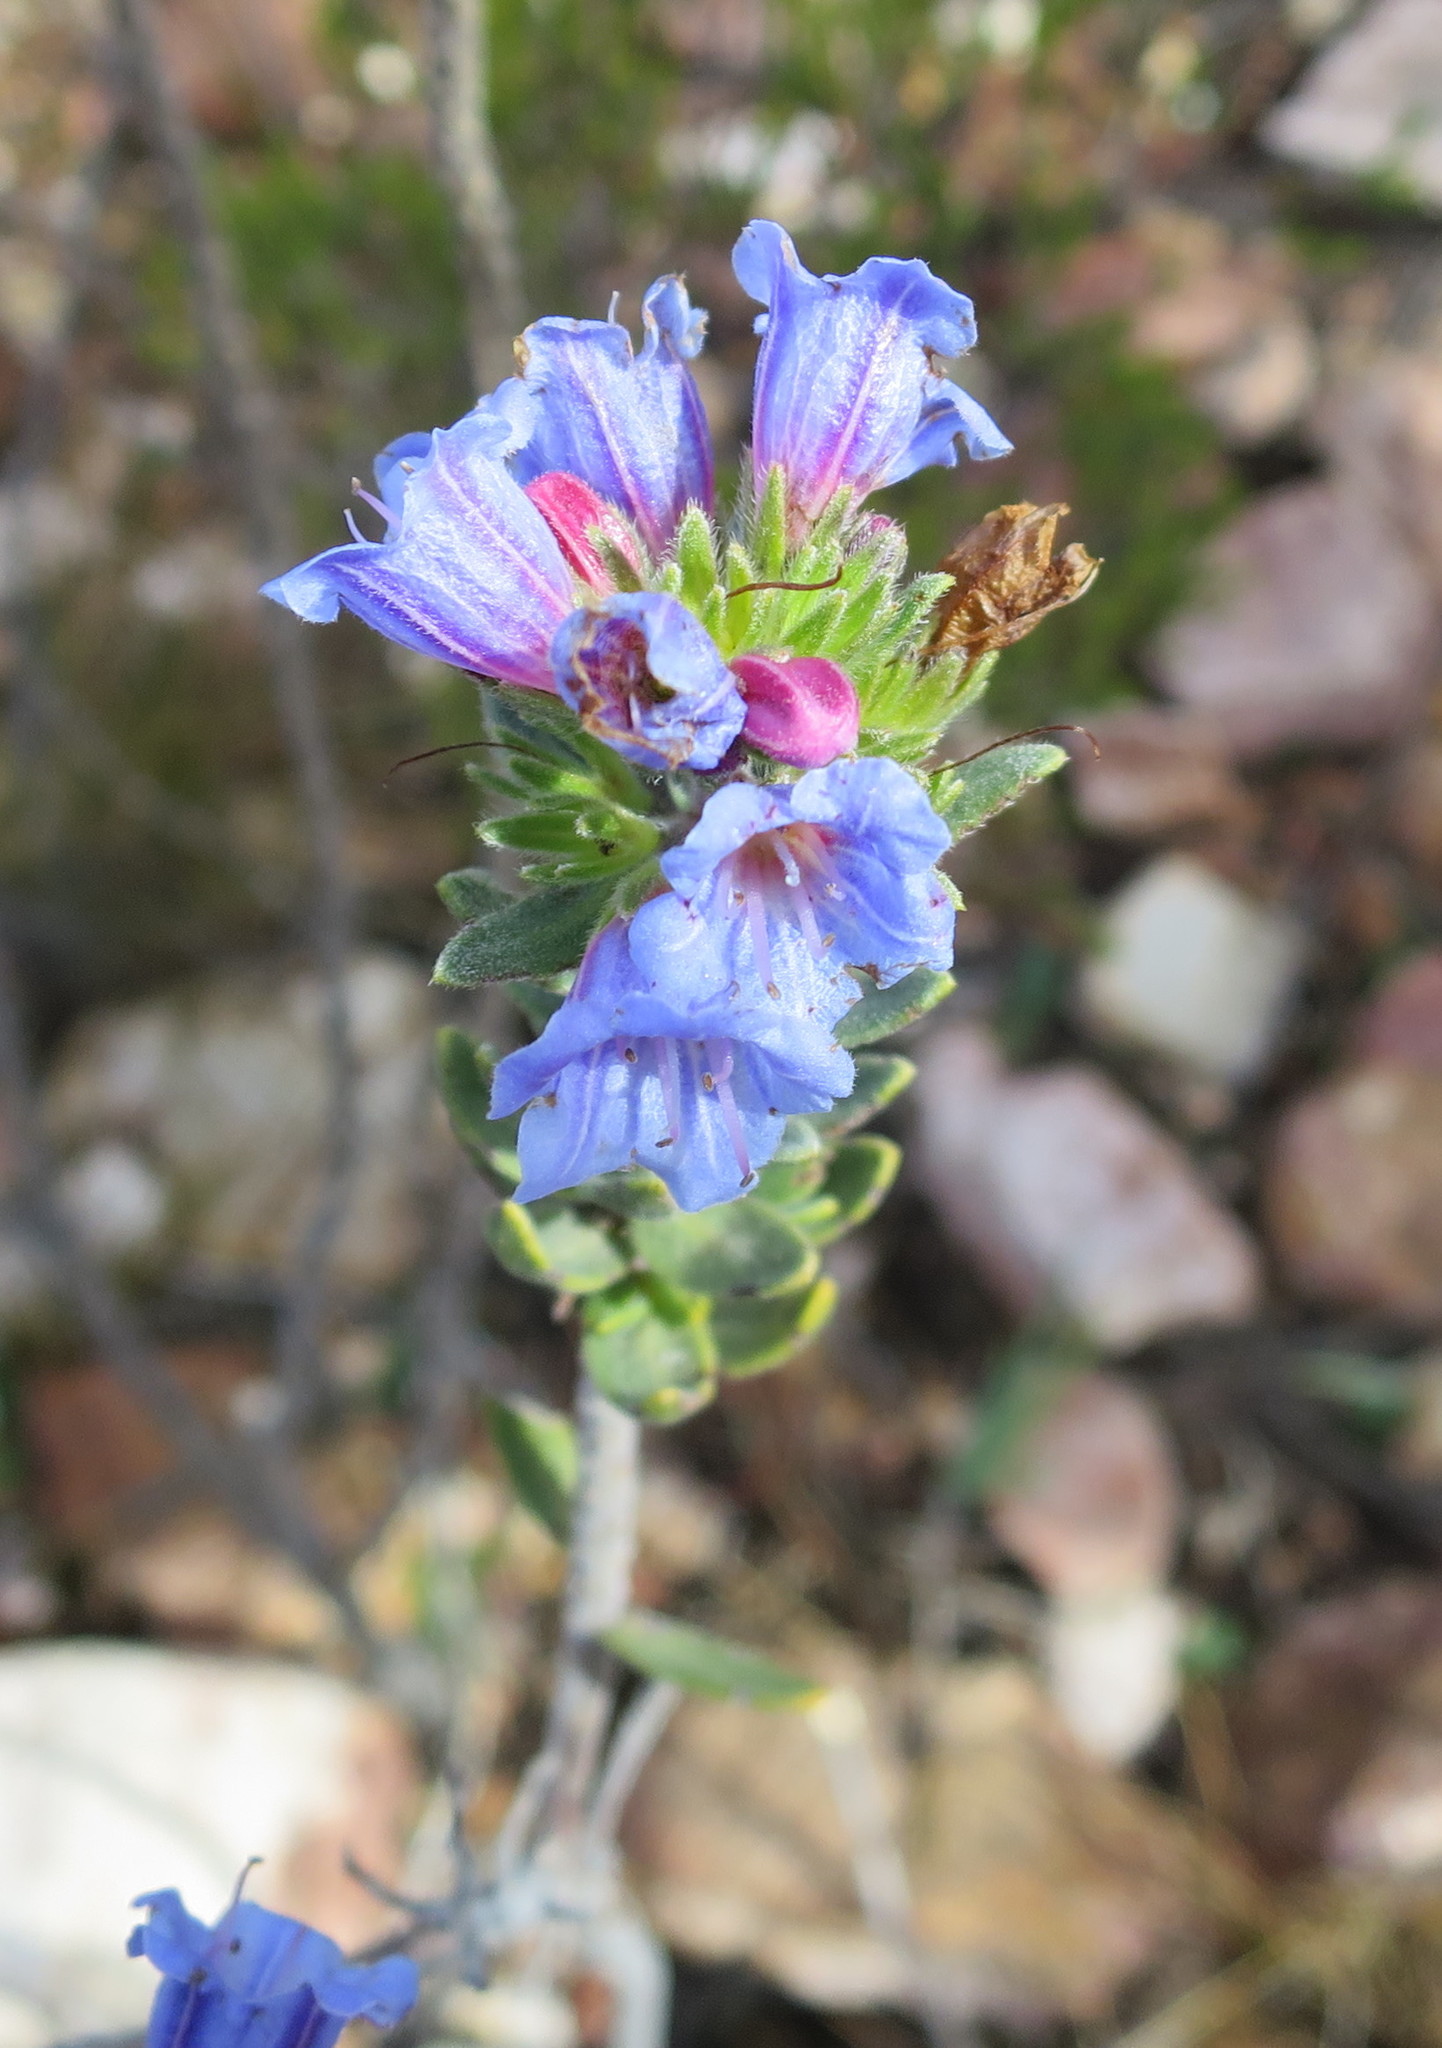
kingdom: Plantae
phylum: Tracheophyta
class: Magnoliopsida
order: Boraginales
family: Boraginaceae
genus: Lobostemon
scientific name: Lobostemon fruticosus
